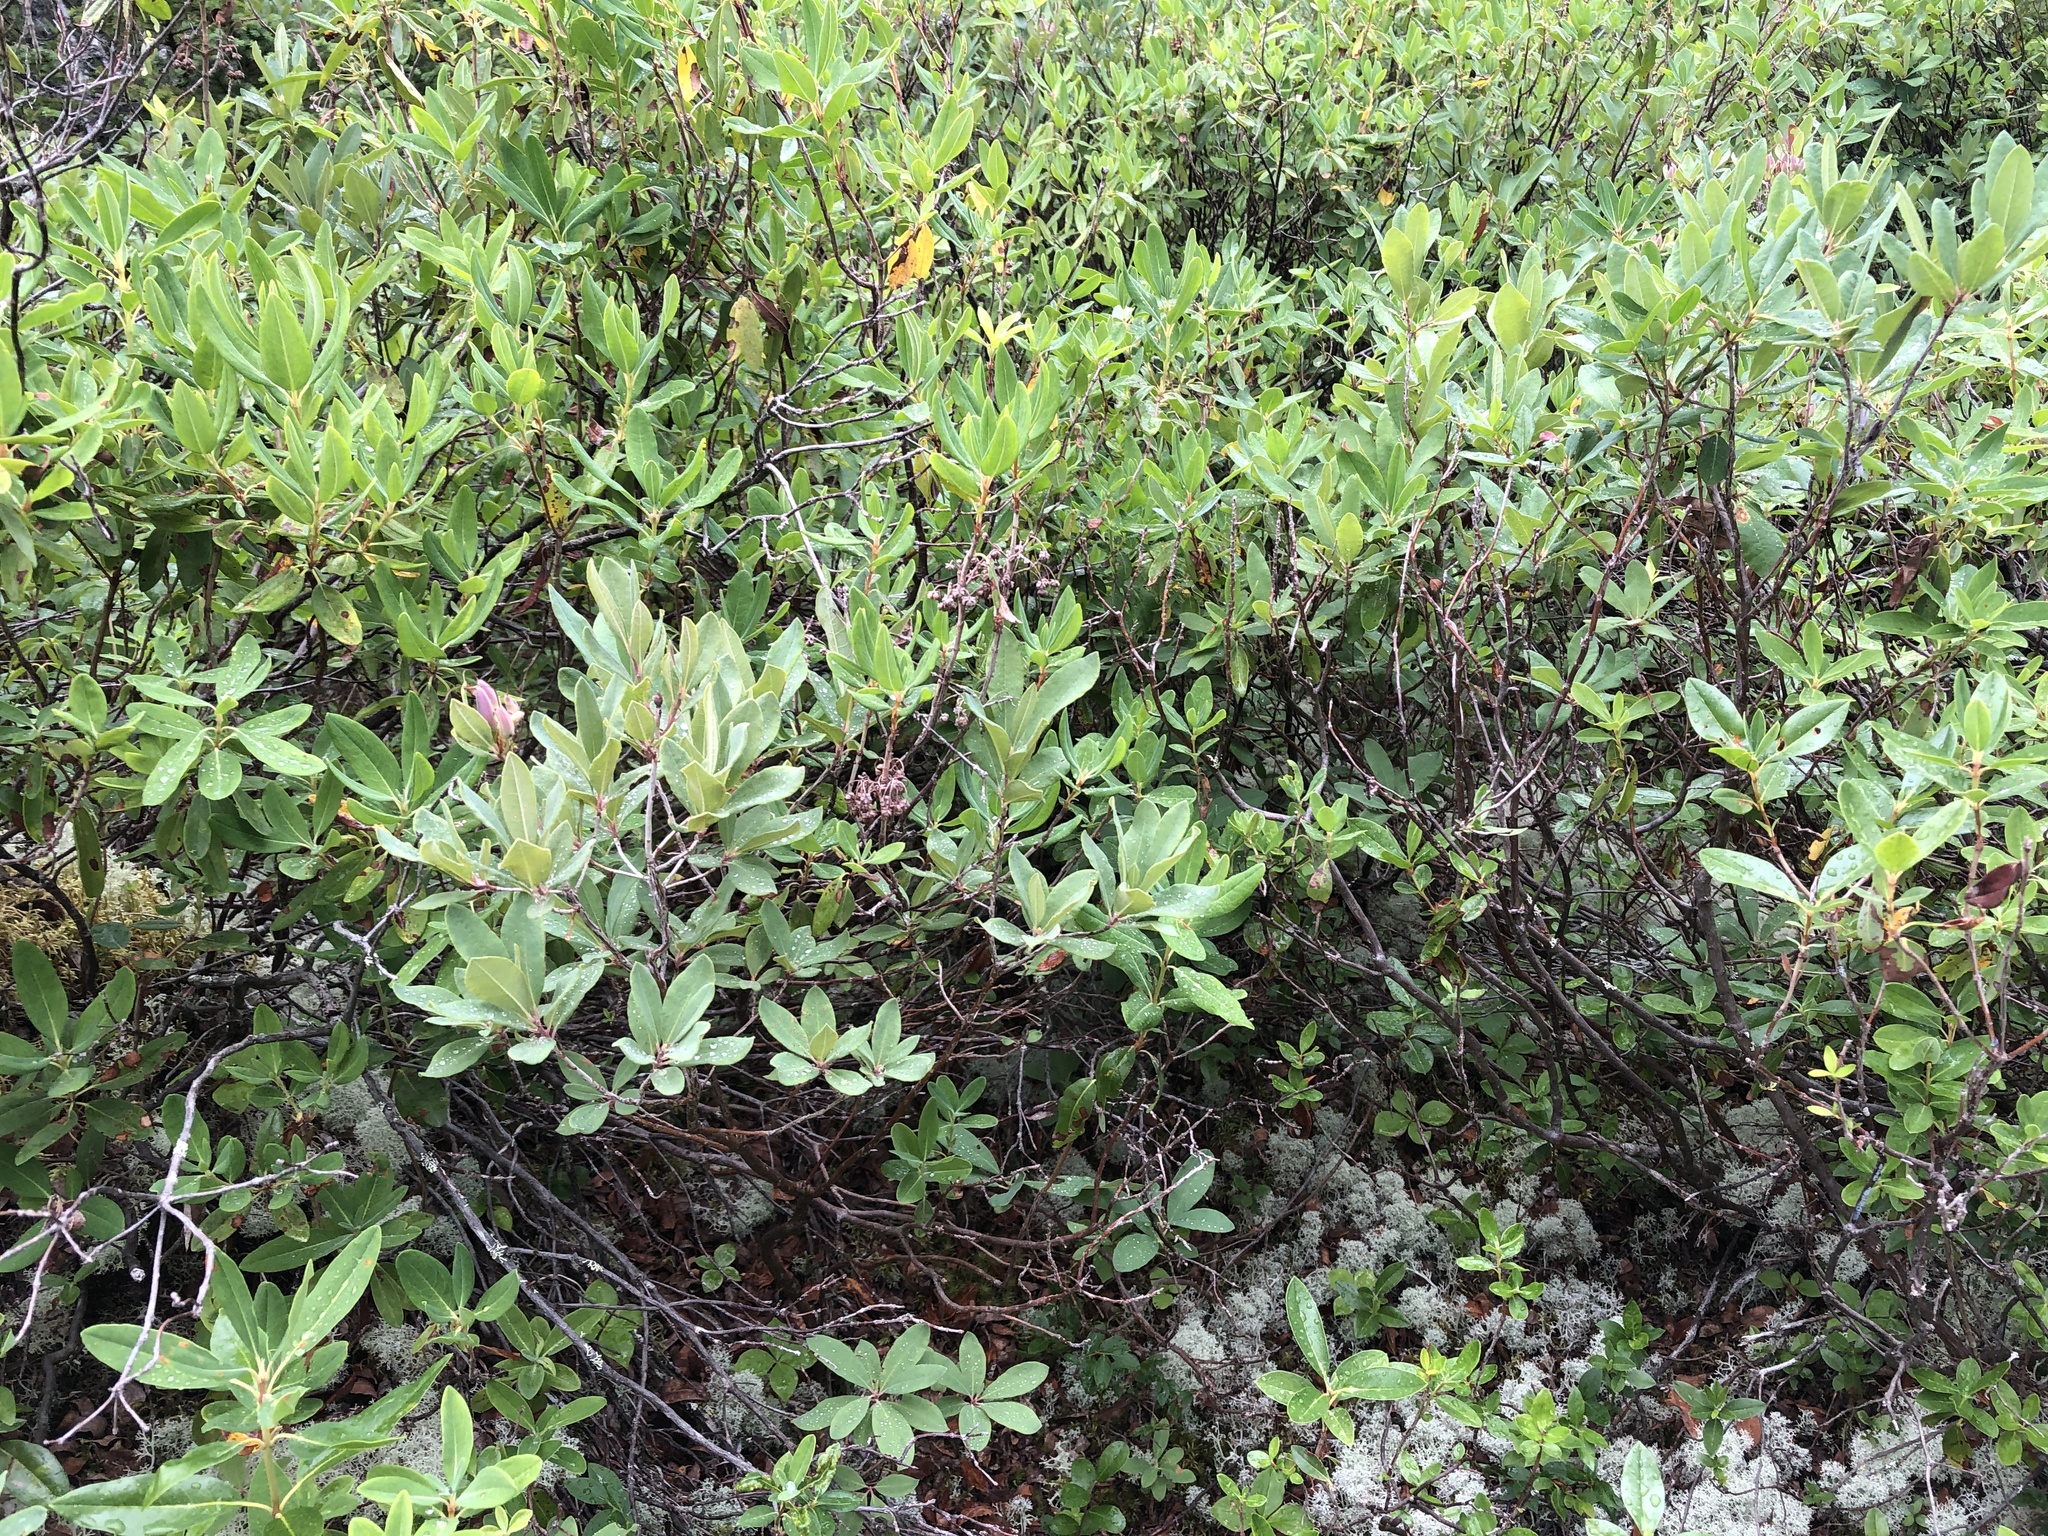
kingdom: Plantae
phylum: Tracheophyta
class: Magnoliopsida
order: Ericales
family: Ericaceae
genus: Rhododendron
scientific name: Rhododendron canadense
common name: Rhodora
